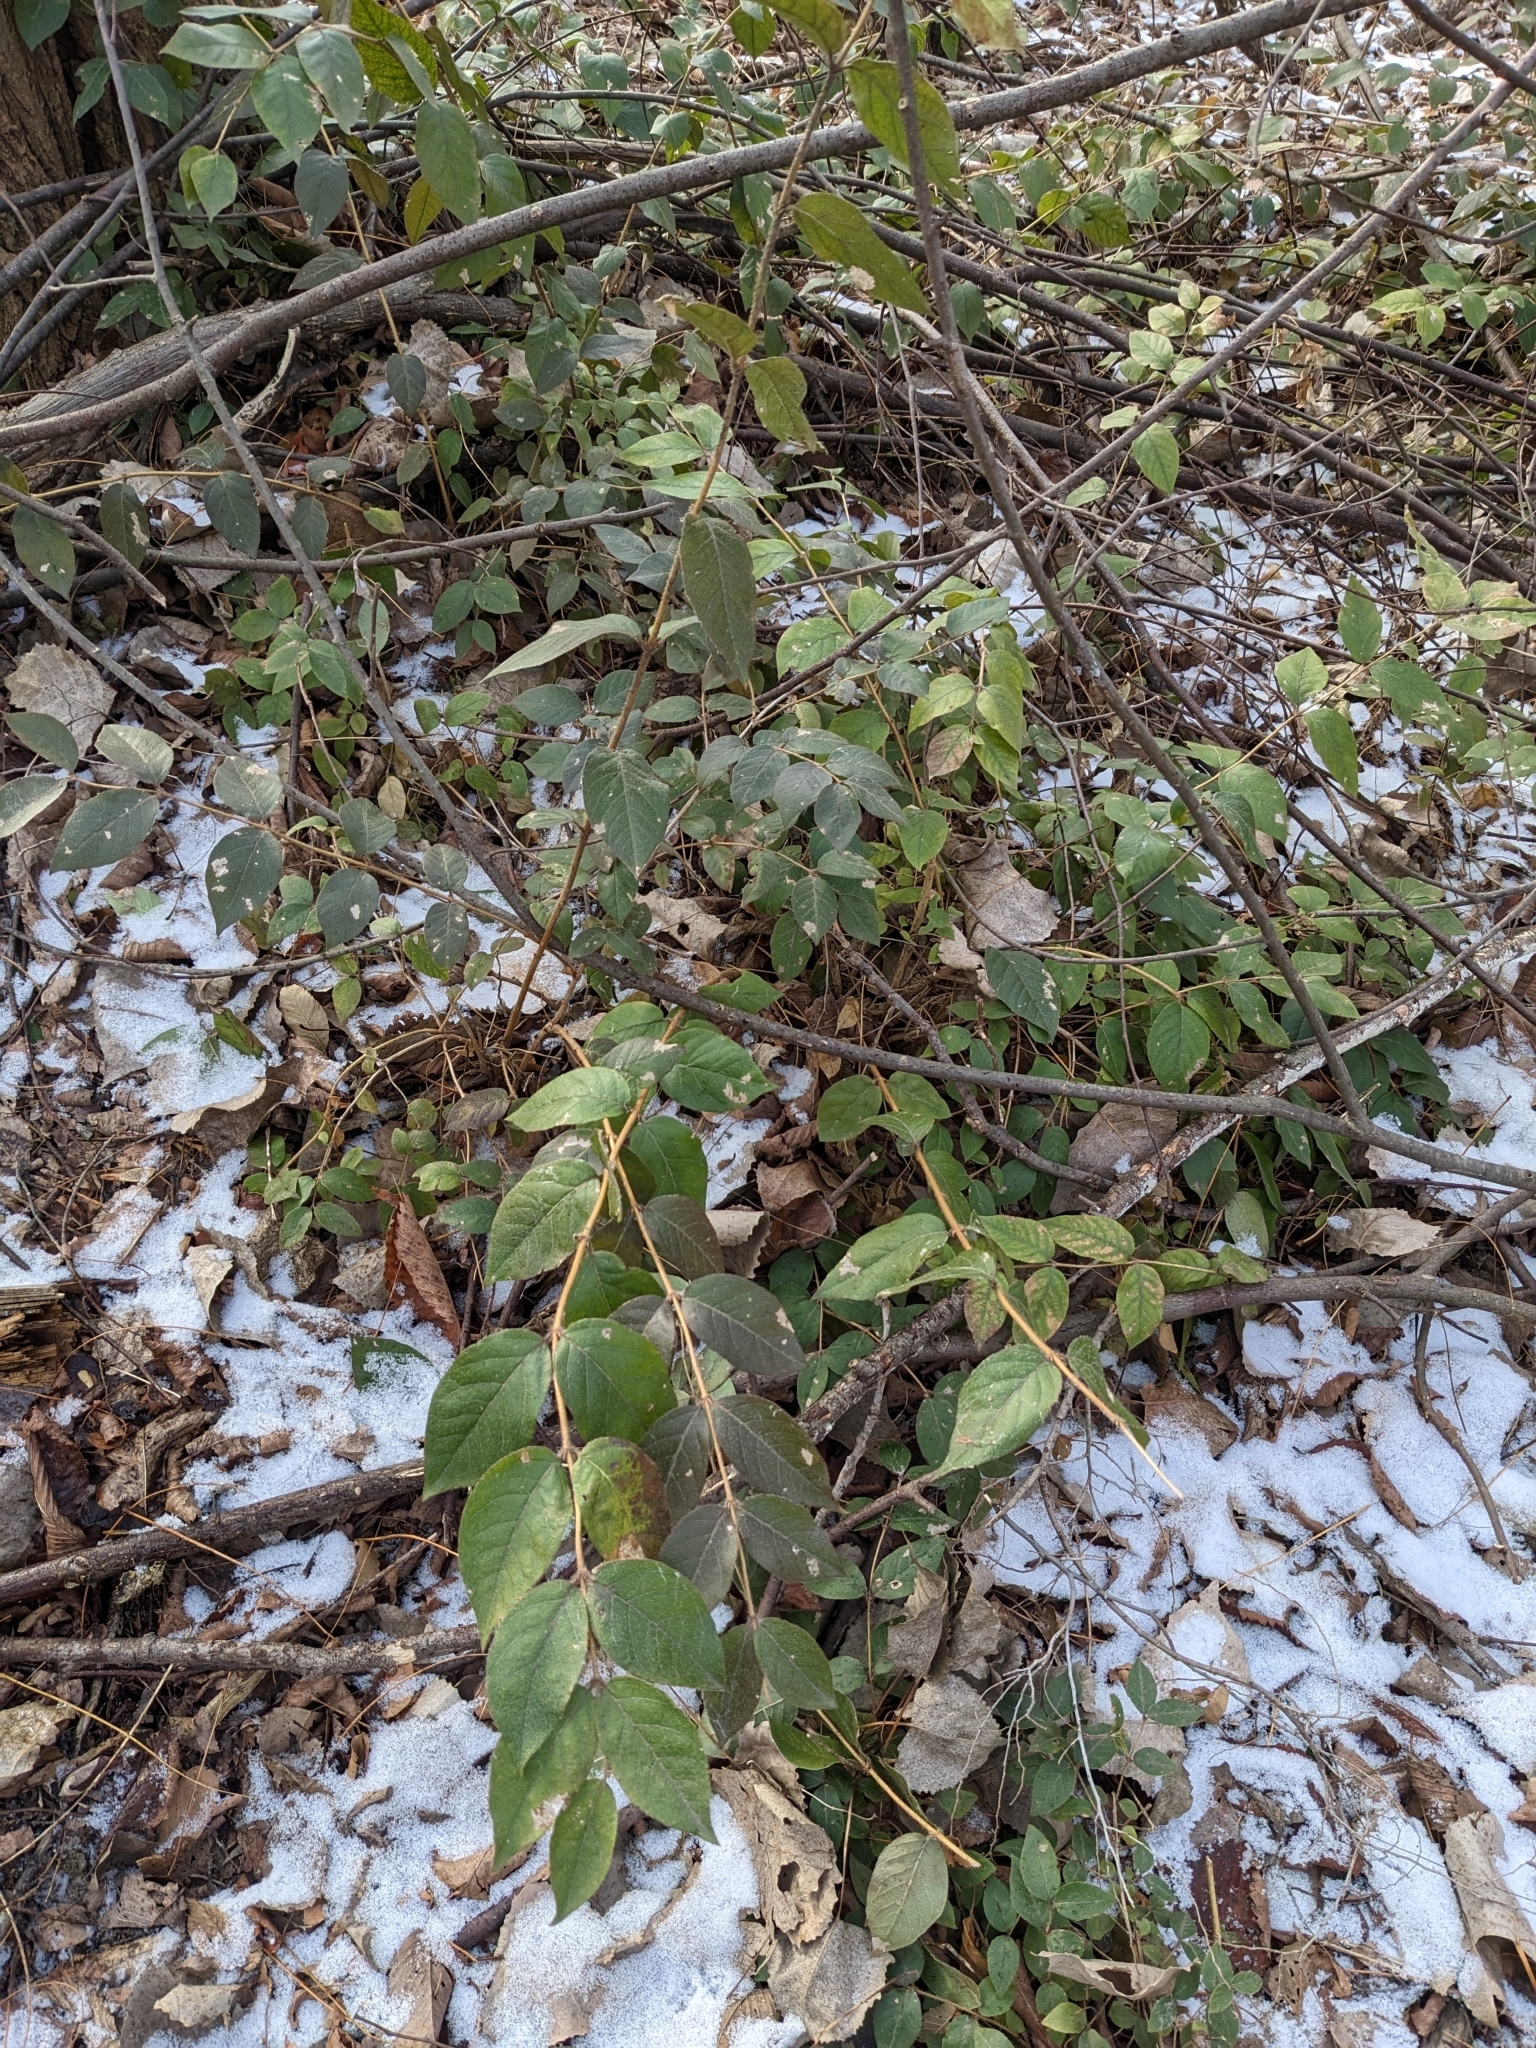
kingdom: Plantae
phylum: Tracheophyta
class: Magnoliopsida
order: Dipsacales
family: Caprifoliaceae
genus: Lonicera
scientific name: Lonicera fragrantissima
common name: Fragrant honeysuckle
